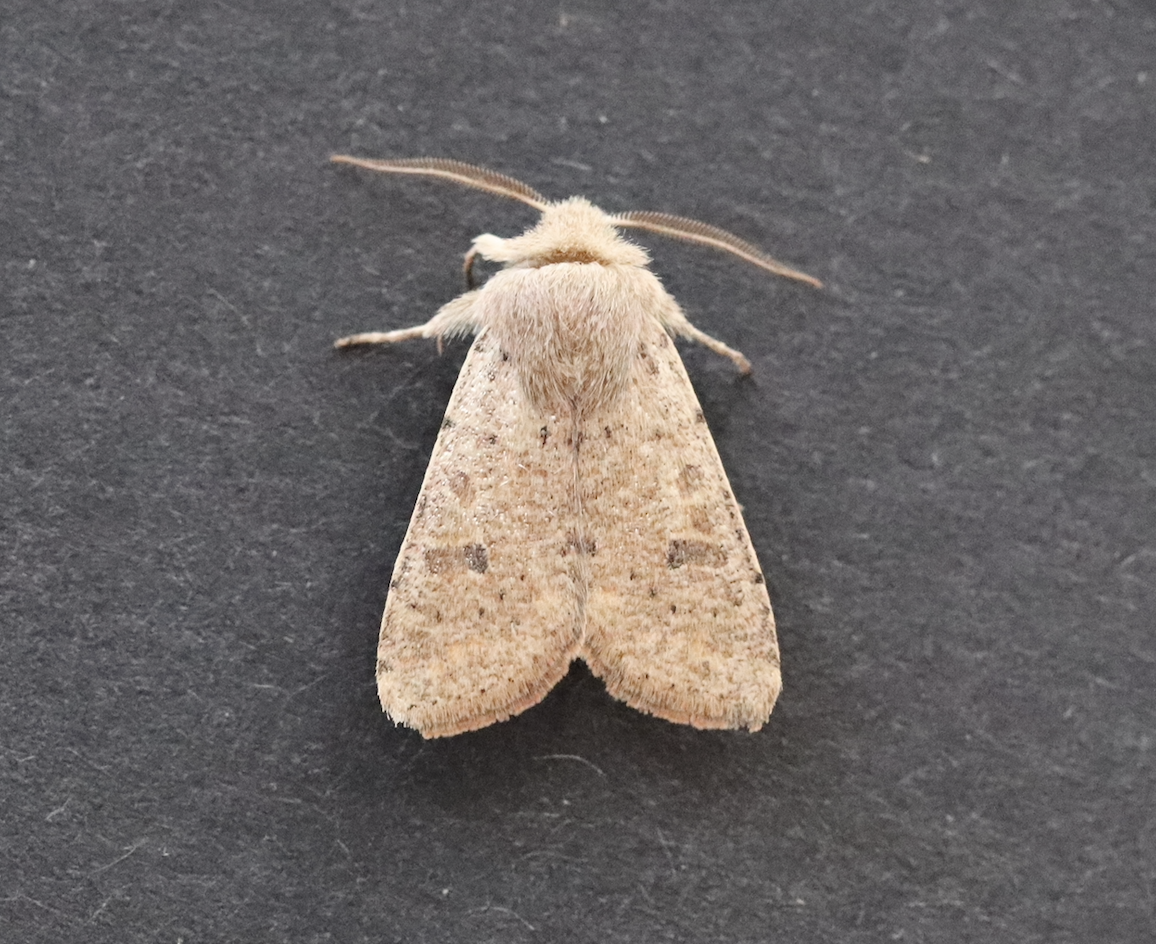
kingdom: Animalia
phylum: Arthropoda
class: Insecta
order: Lepidoptera
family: Noctuidae
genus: Orthosia
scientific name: Orthosia cruda
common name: Small quaker
